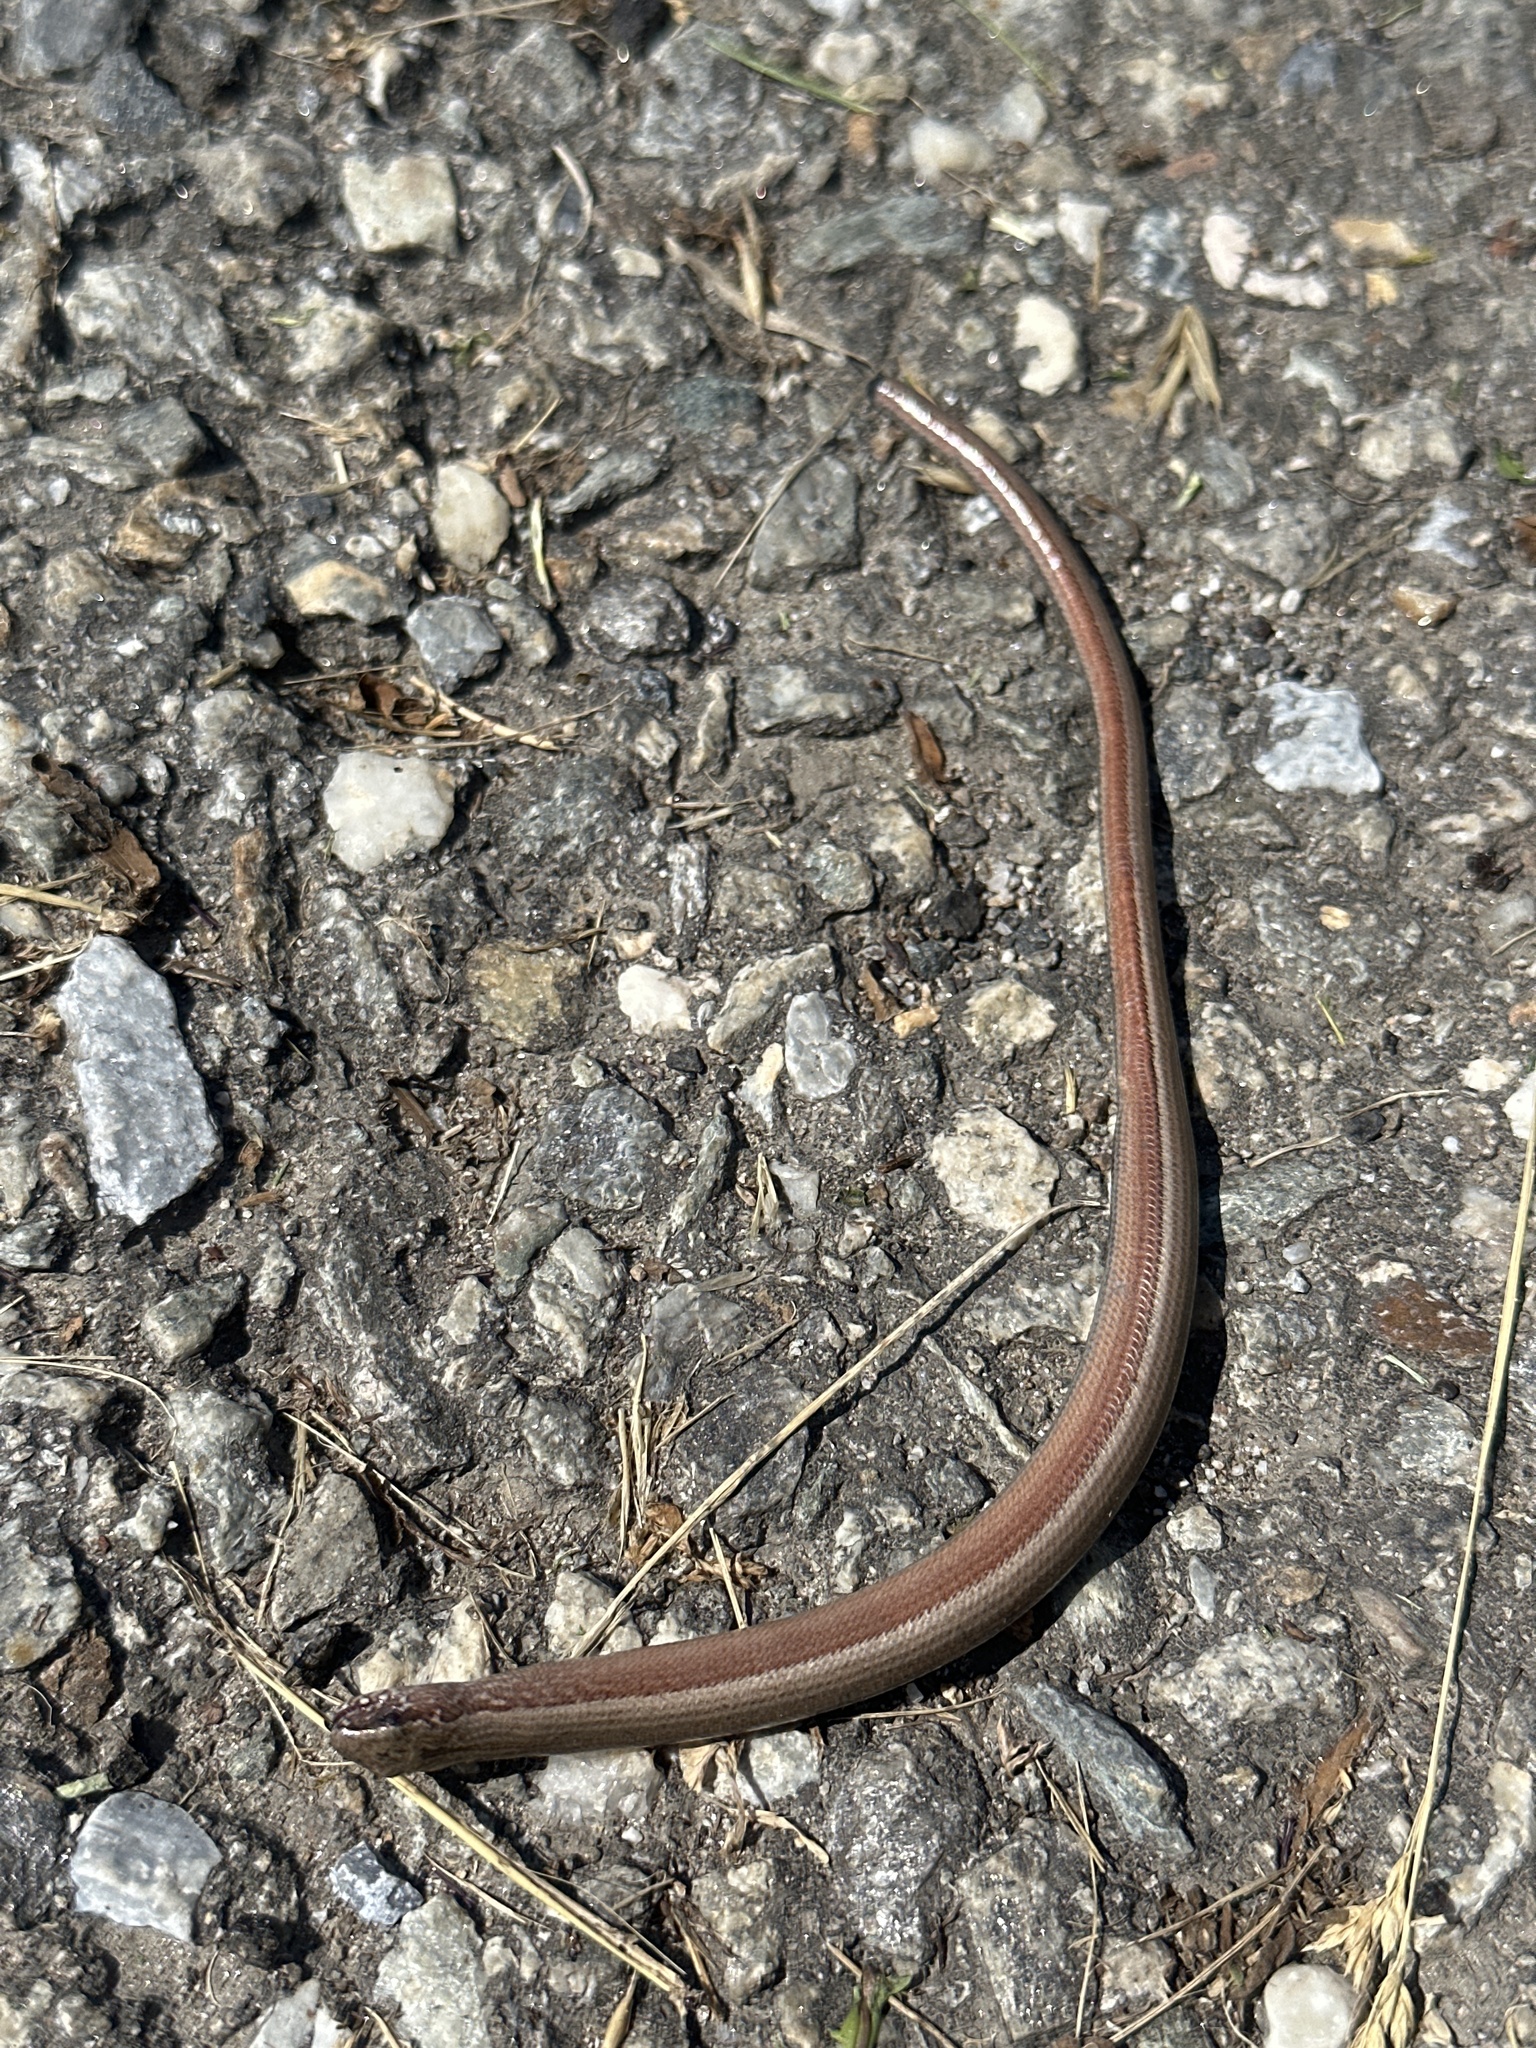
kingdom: Animalia
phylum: Chordata
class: Squamata
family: Anguidae
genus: Anguis
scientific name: Anguis fragilis
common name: Slow worm
